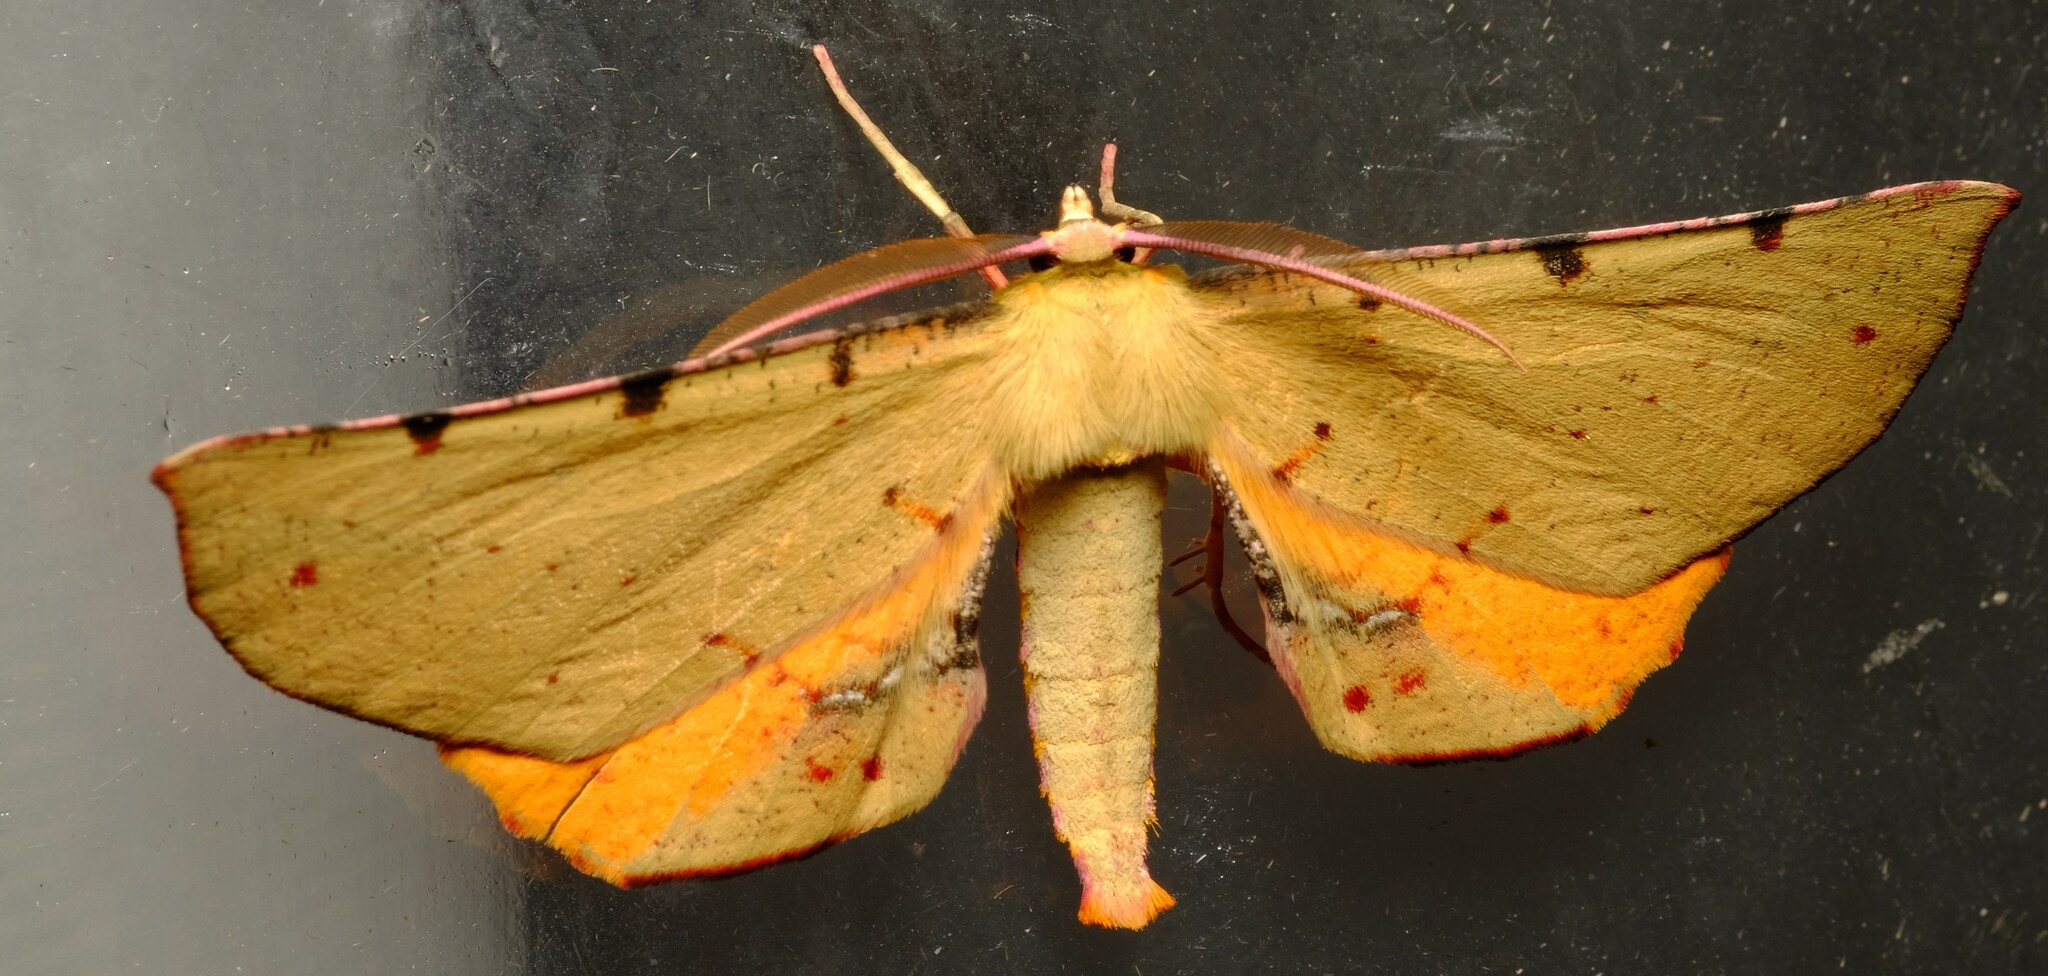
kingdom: Animalia
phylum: Arthropoda
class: Insecta
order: Lepidoptera
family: Geometridae
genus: Parepisparis
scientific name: Parepisparis lutosaria
